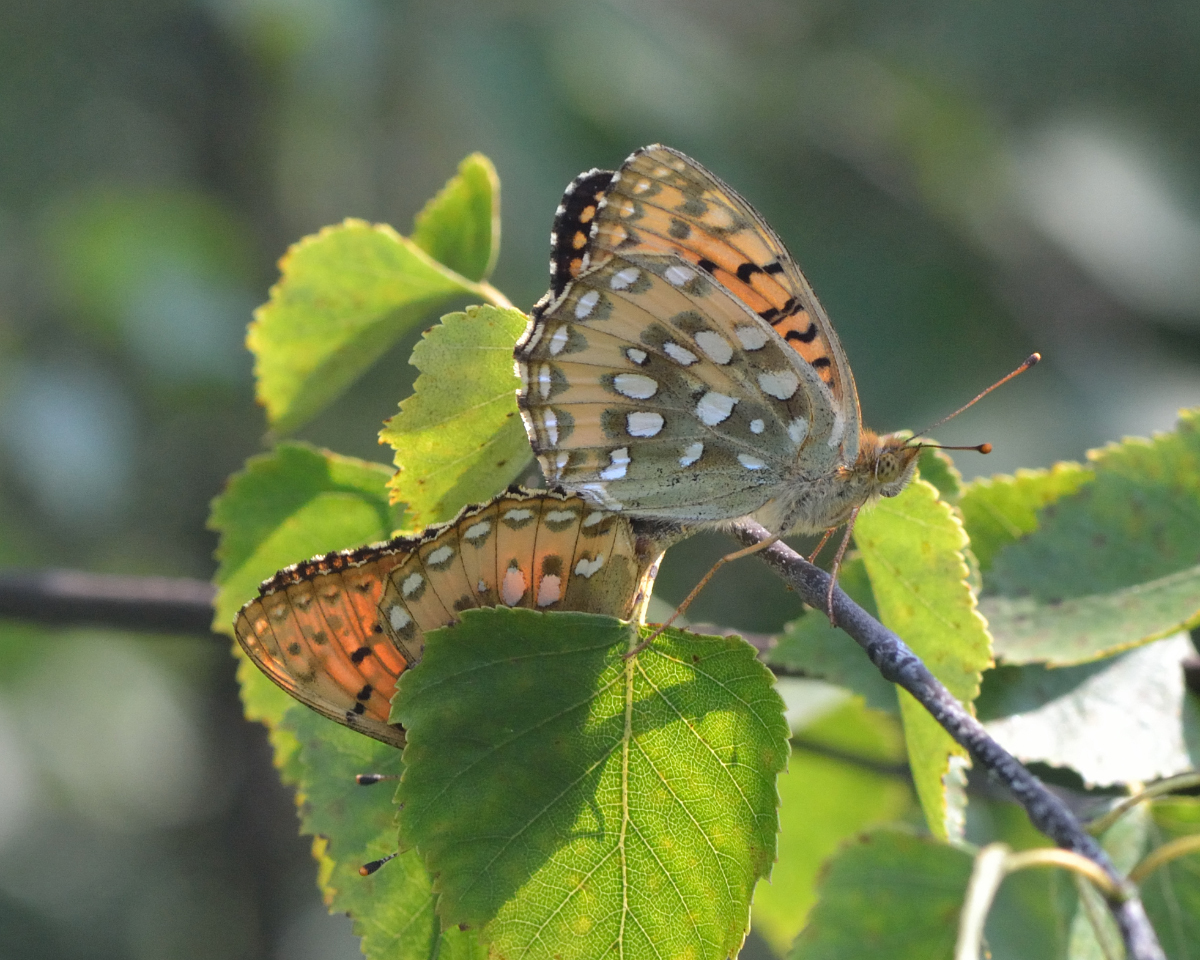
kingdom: Animalia
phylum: Arthropoda
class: Insecta
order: Lepidoptera
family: Nymphalidae
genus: Speyeria
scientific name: Speyeria aglaja
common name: Dark green fritillary
